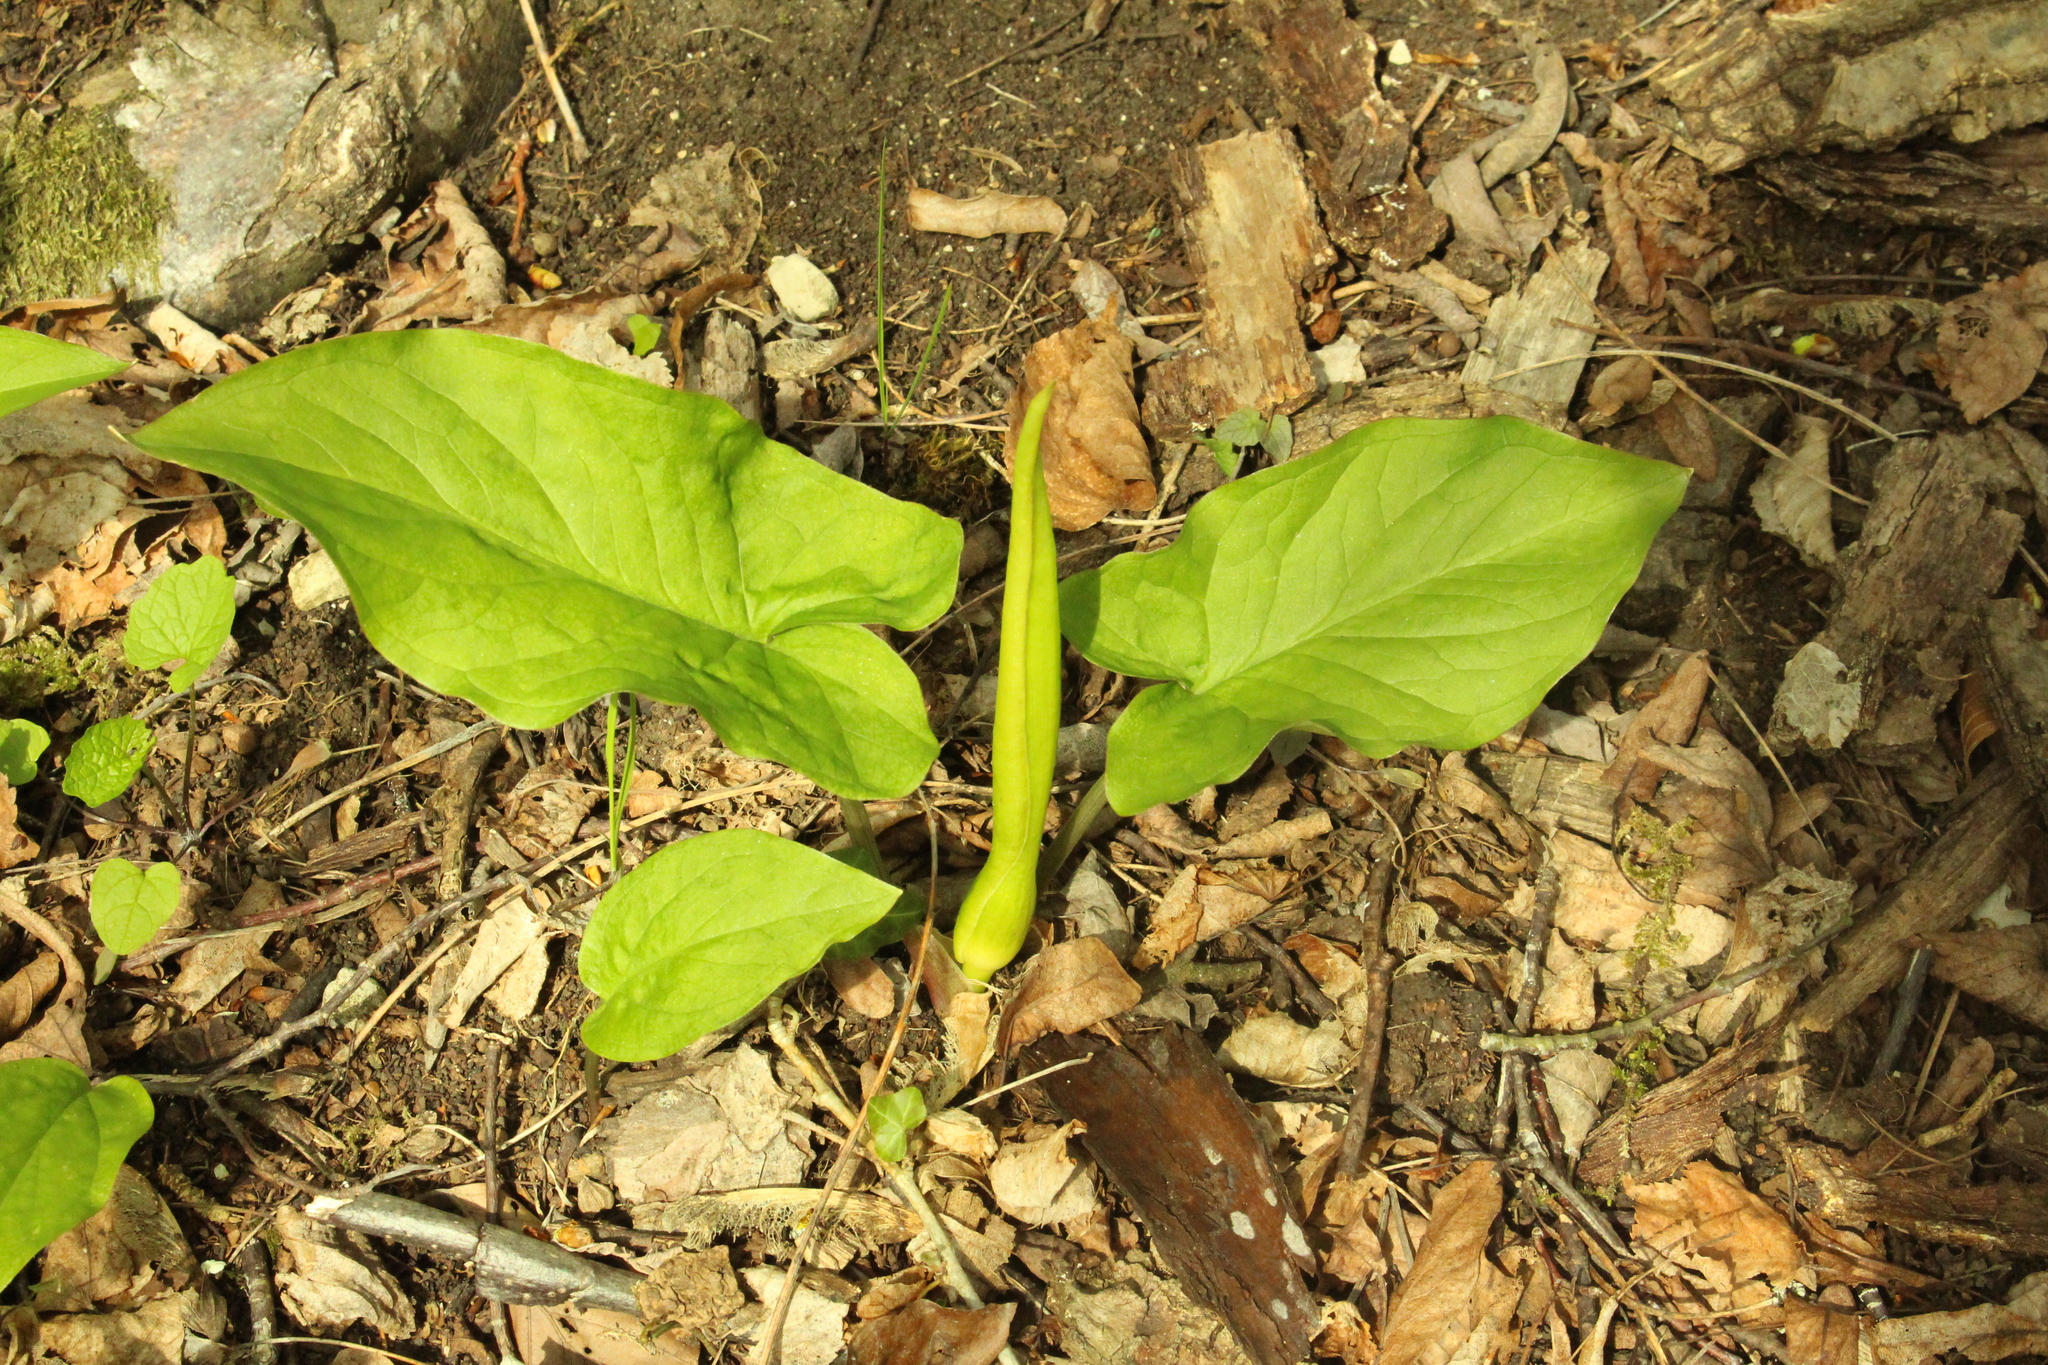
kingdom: Plantae
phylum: Tracheophyta
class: Liliopsida
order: Alismatales
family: Araceae
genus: Arum
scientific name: Arum maculatum
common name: Lords-and-ladies
